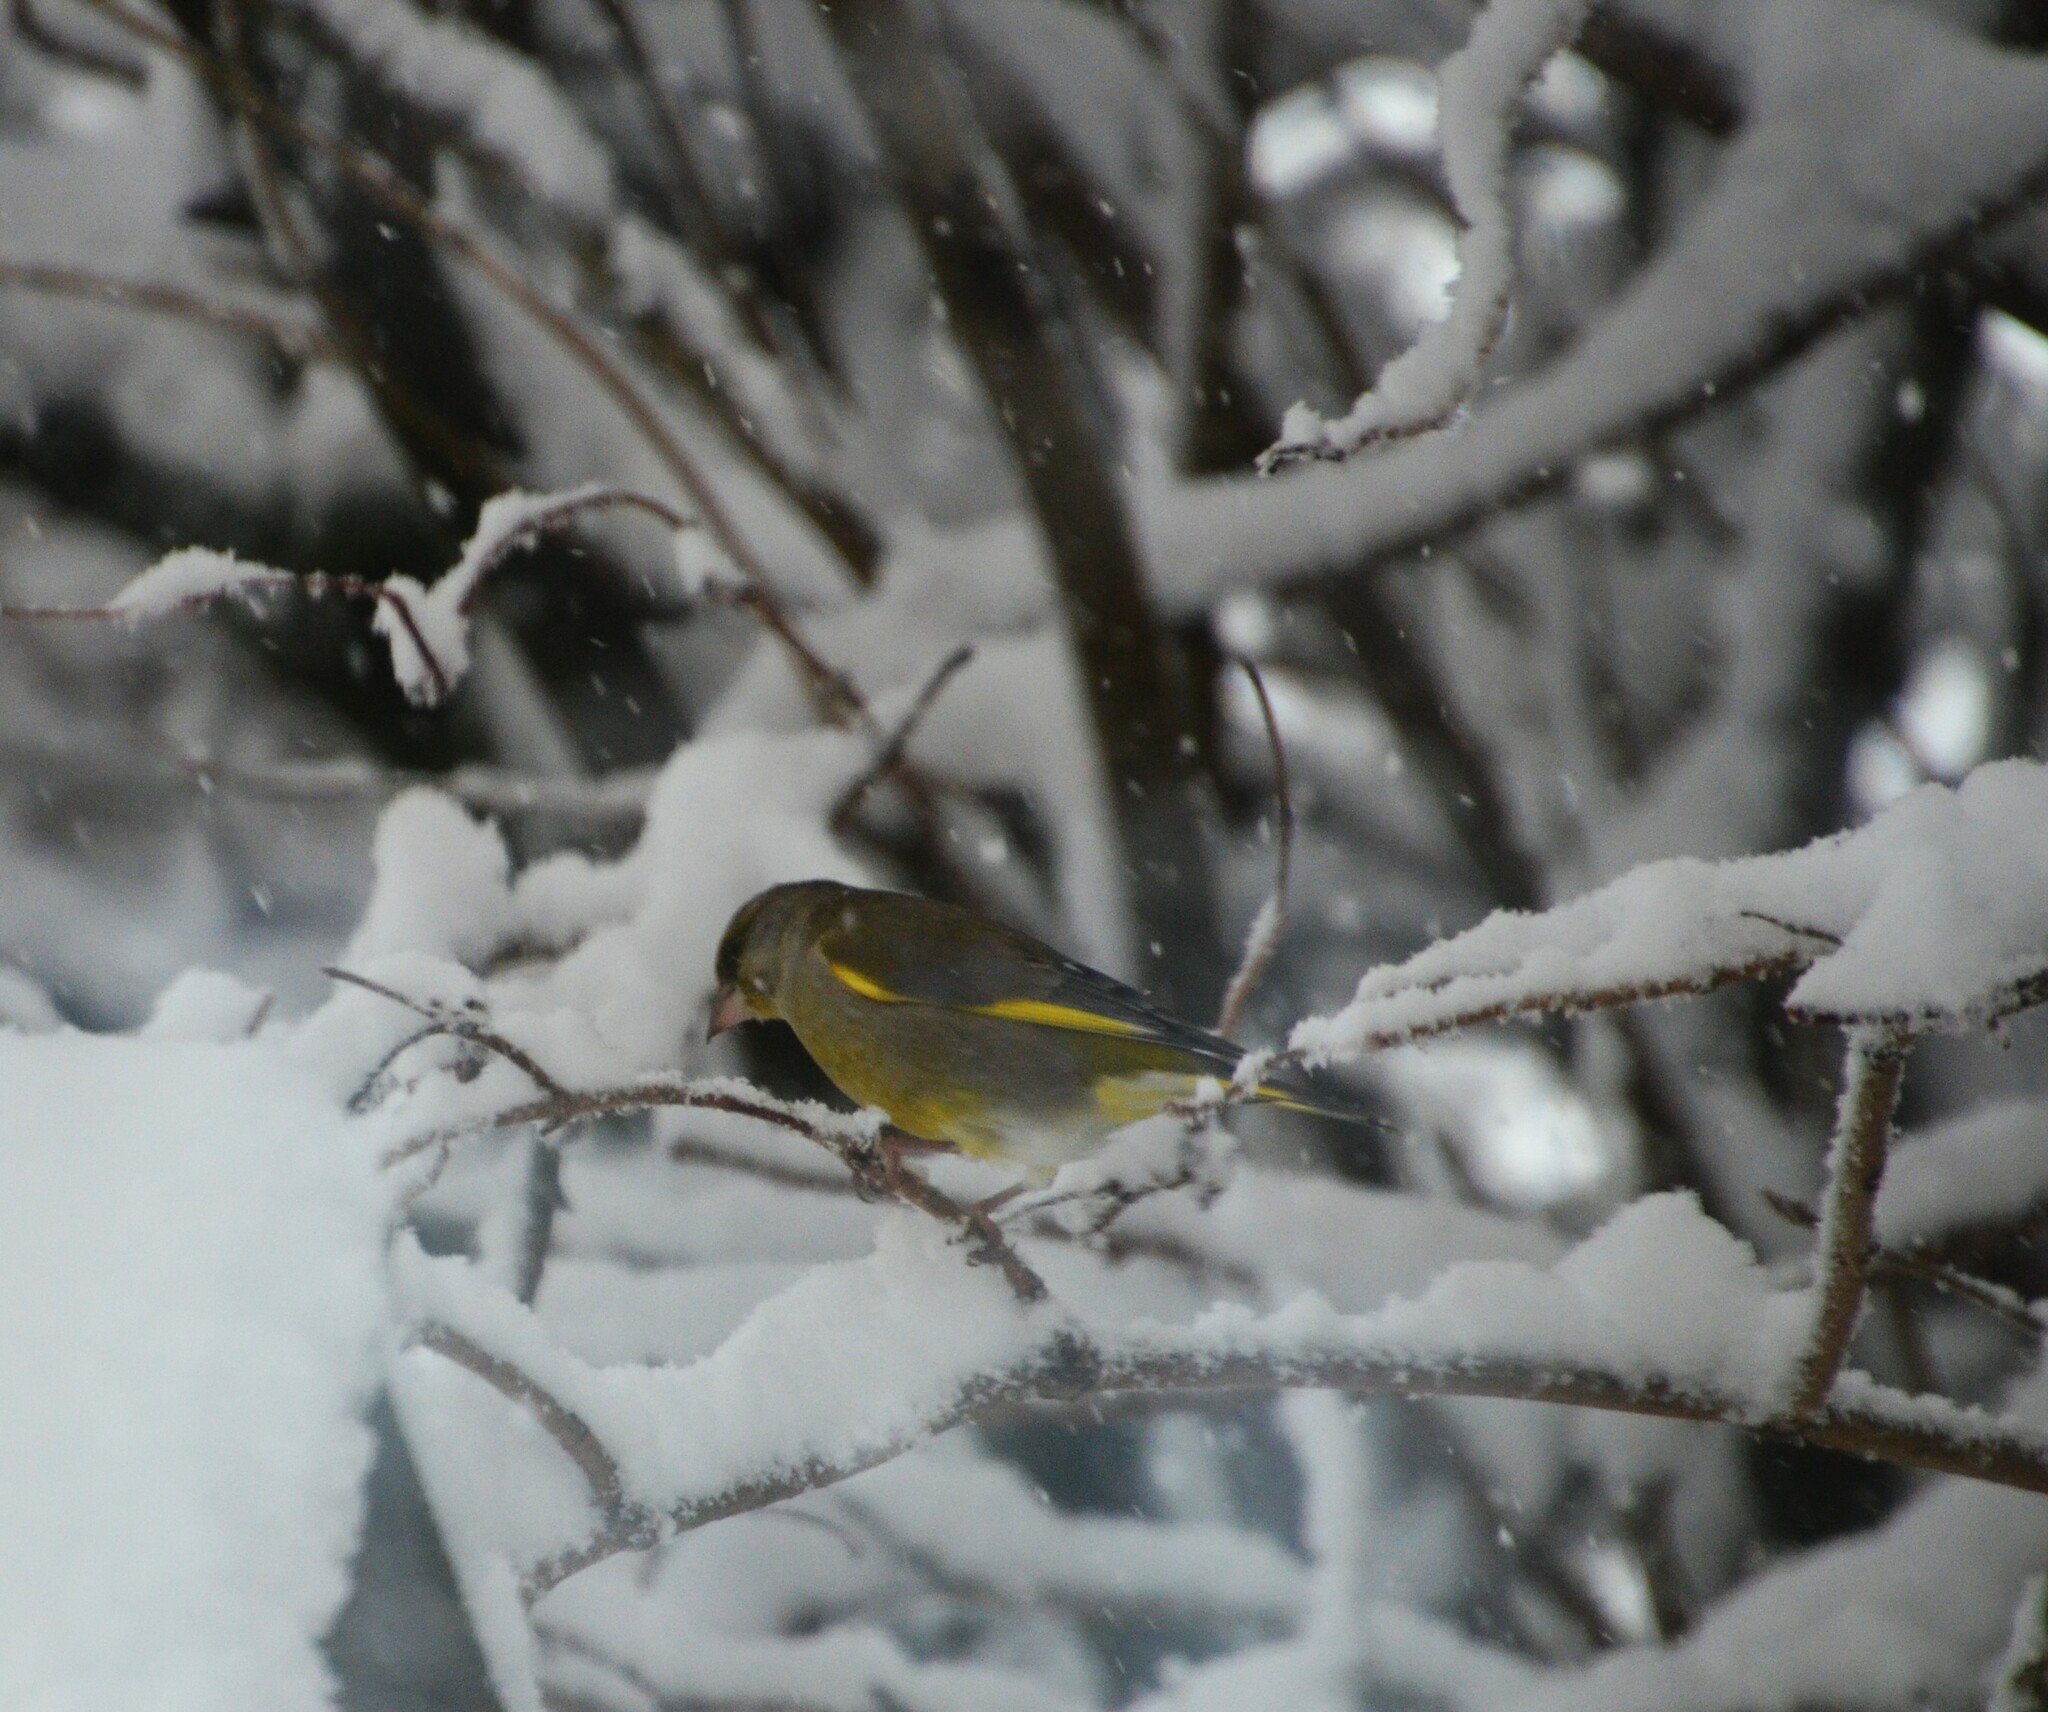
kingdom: Plantae
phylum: Tracheophyta
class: Liliopsida
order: Poales
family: Poaceae
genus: Chloris
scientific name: Chloris chloris
